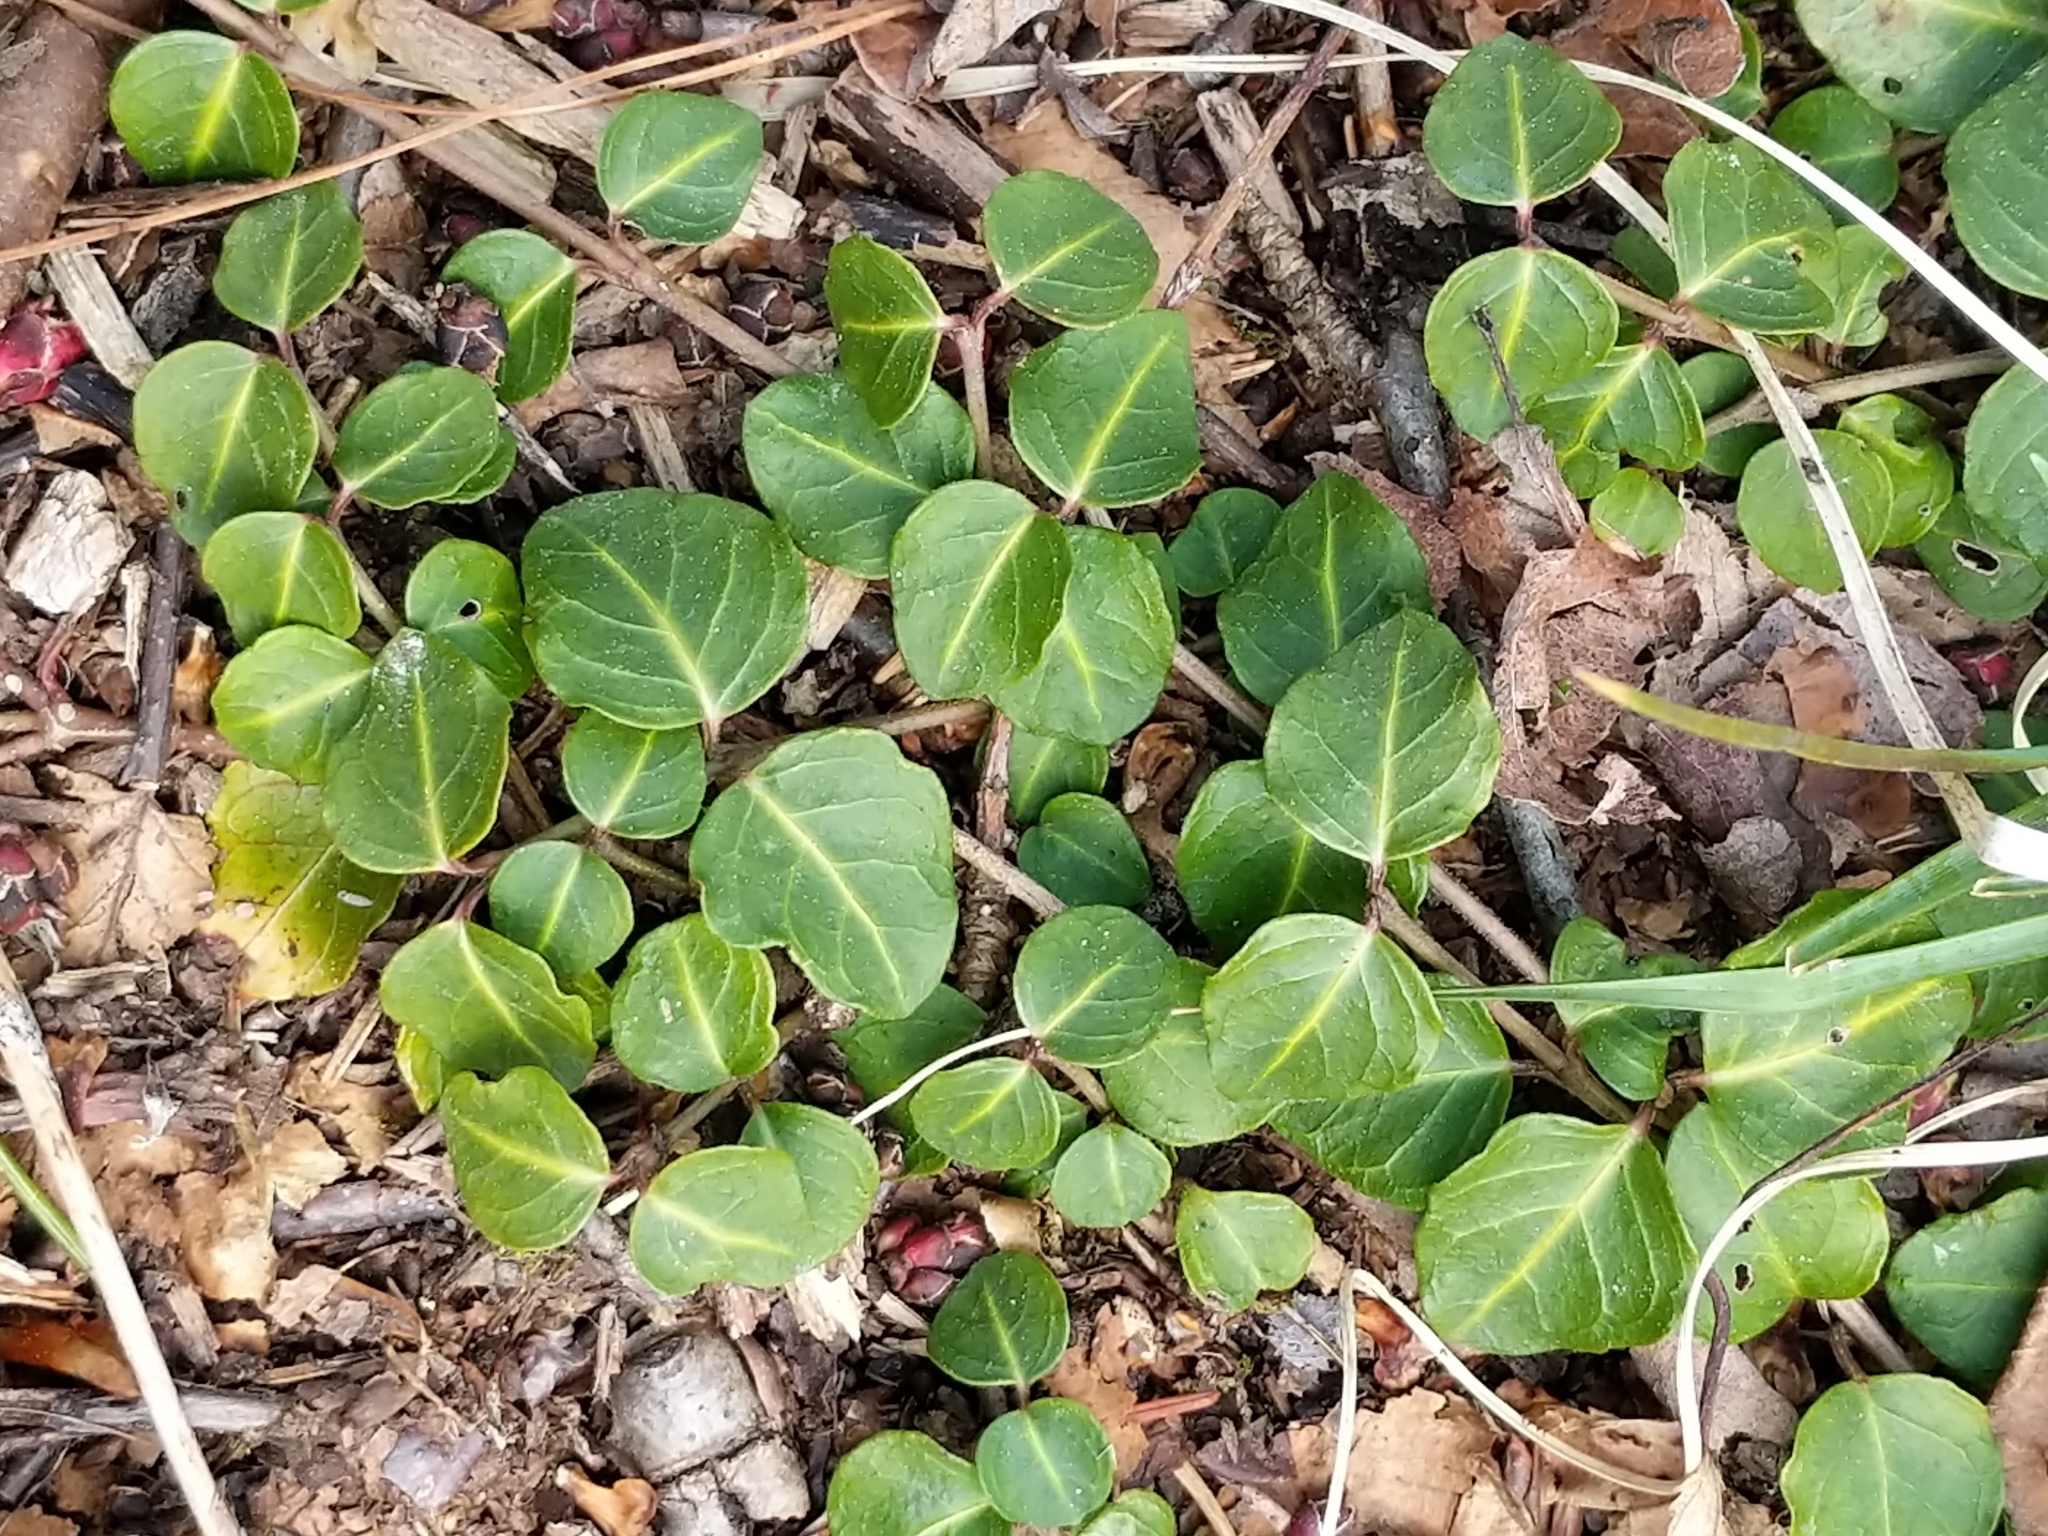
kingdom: Plantae
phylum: Tracheophyta
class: Magnoliopsida
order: Gentianales
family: Rubiaceae
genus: Mitchella
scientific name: Mitchella repens
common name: Partridge-berry
